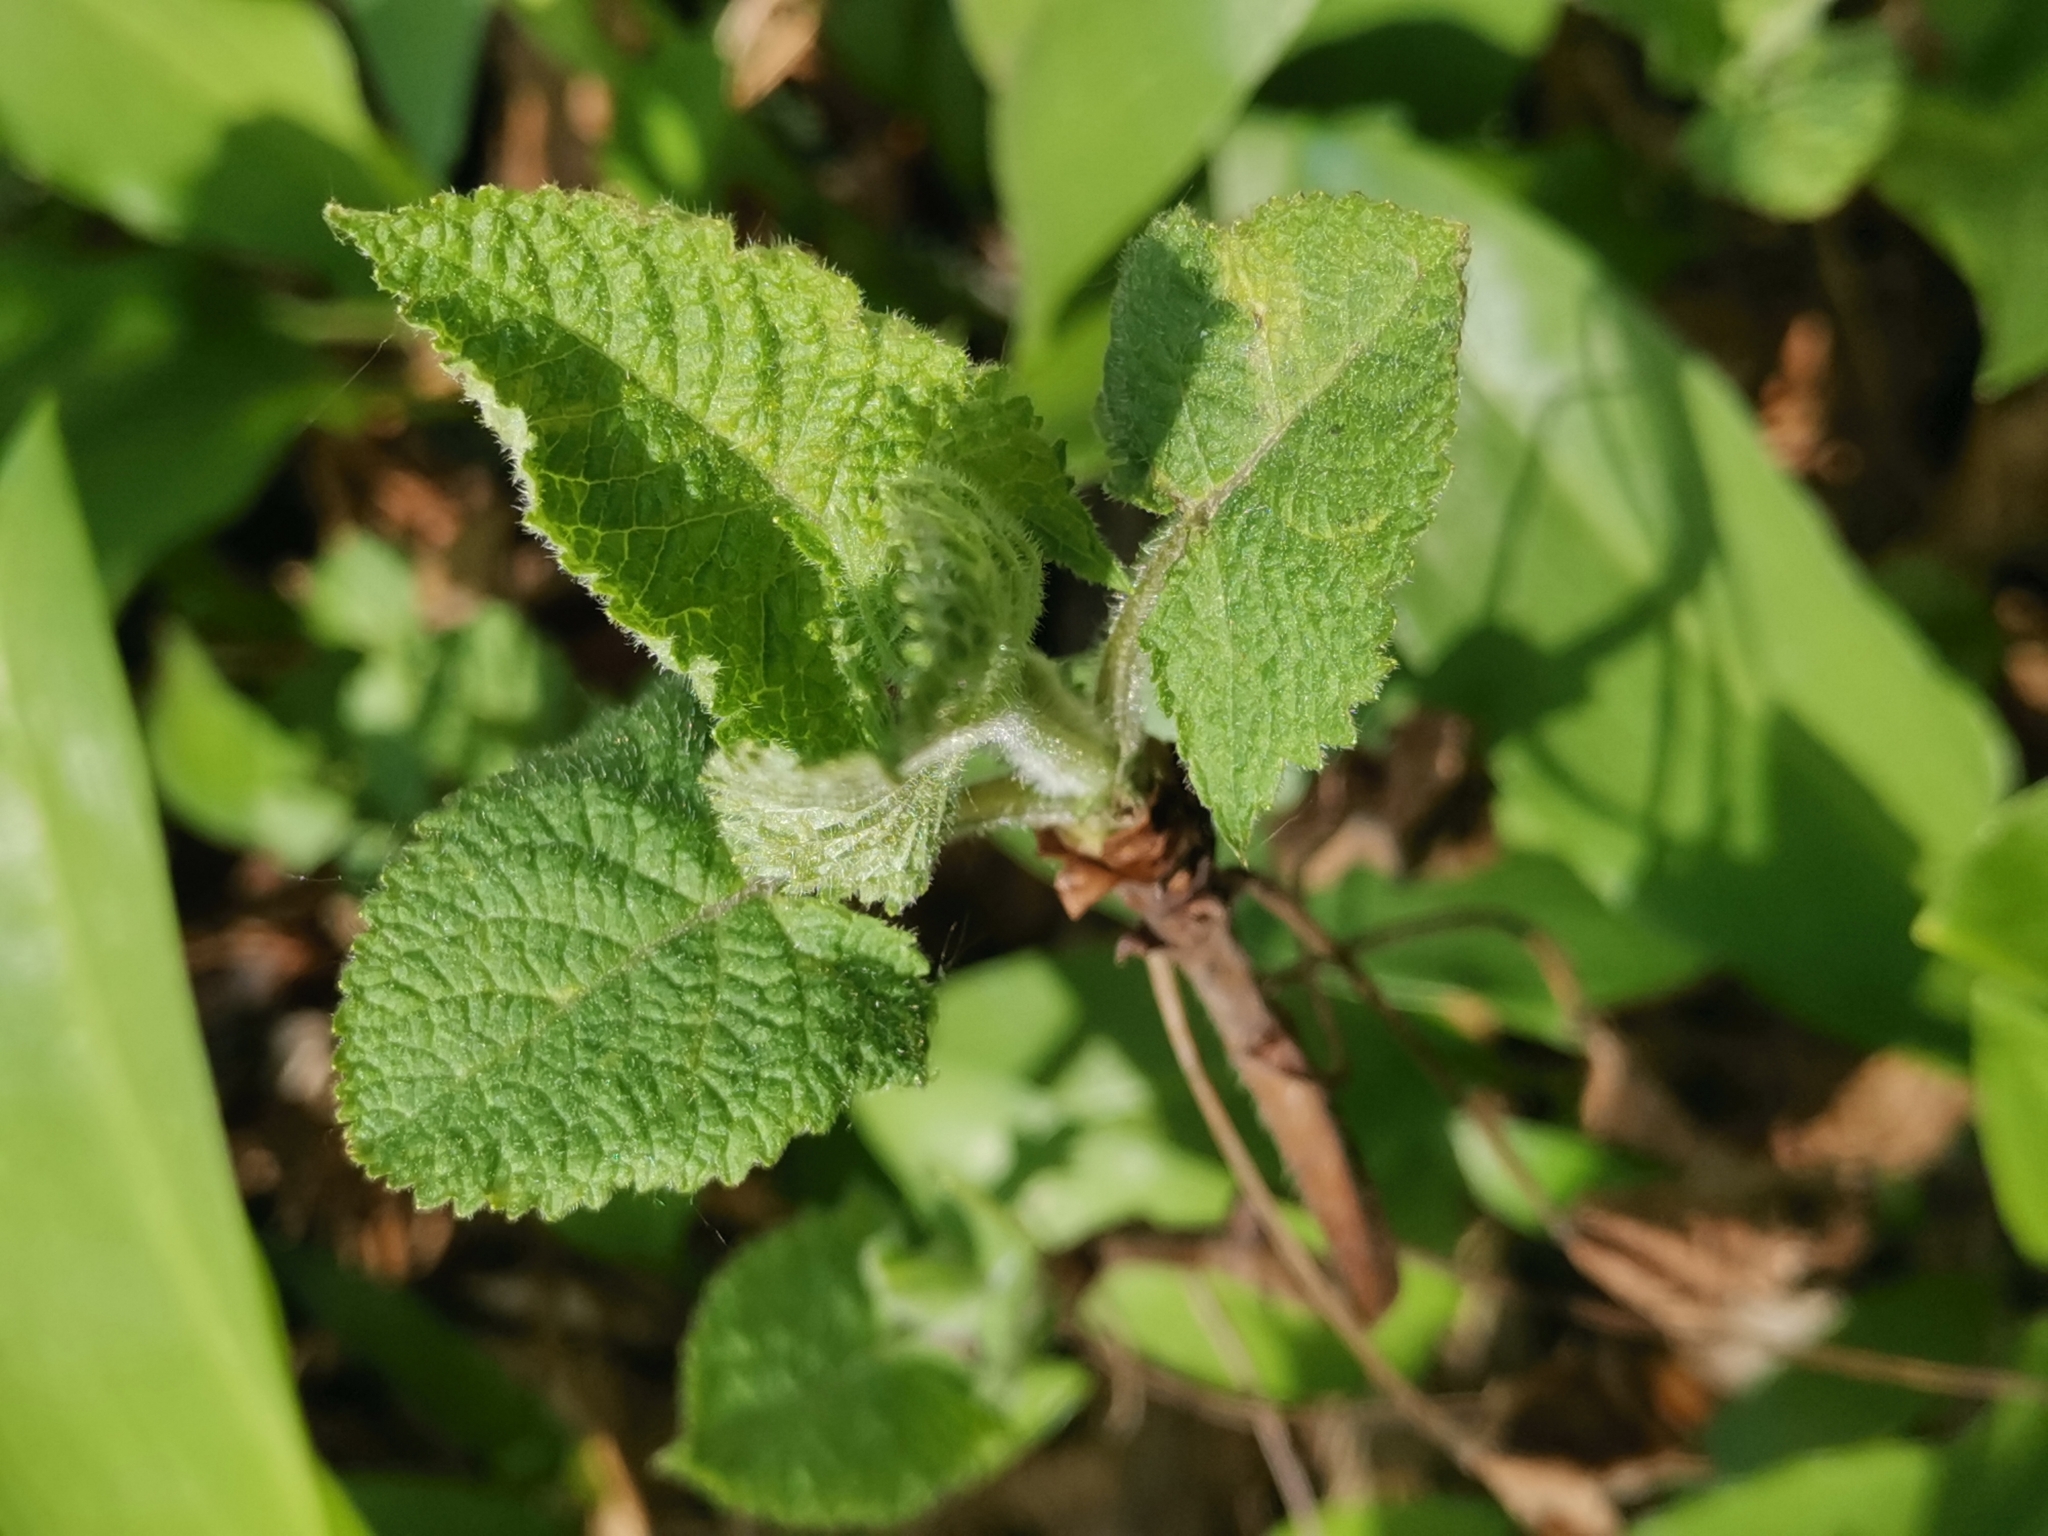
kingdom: Plantae
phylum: Tracheophyta
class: Magnoliopsida
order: Lamiales
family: Lamiaceae
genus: Salvia
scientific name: Salvia glutinosa
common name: Sticky clary
